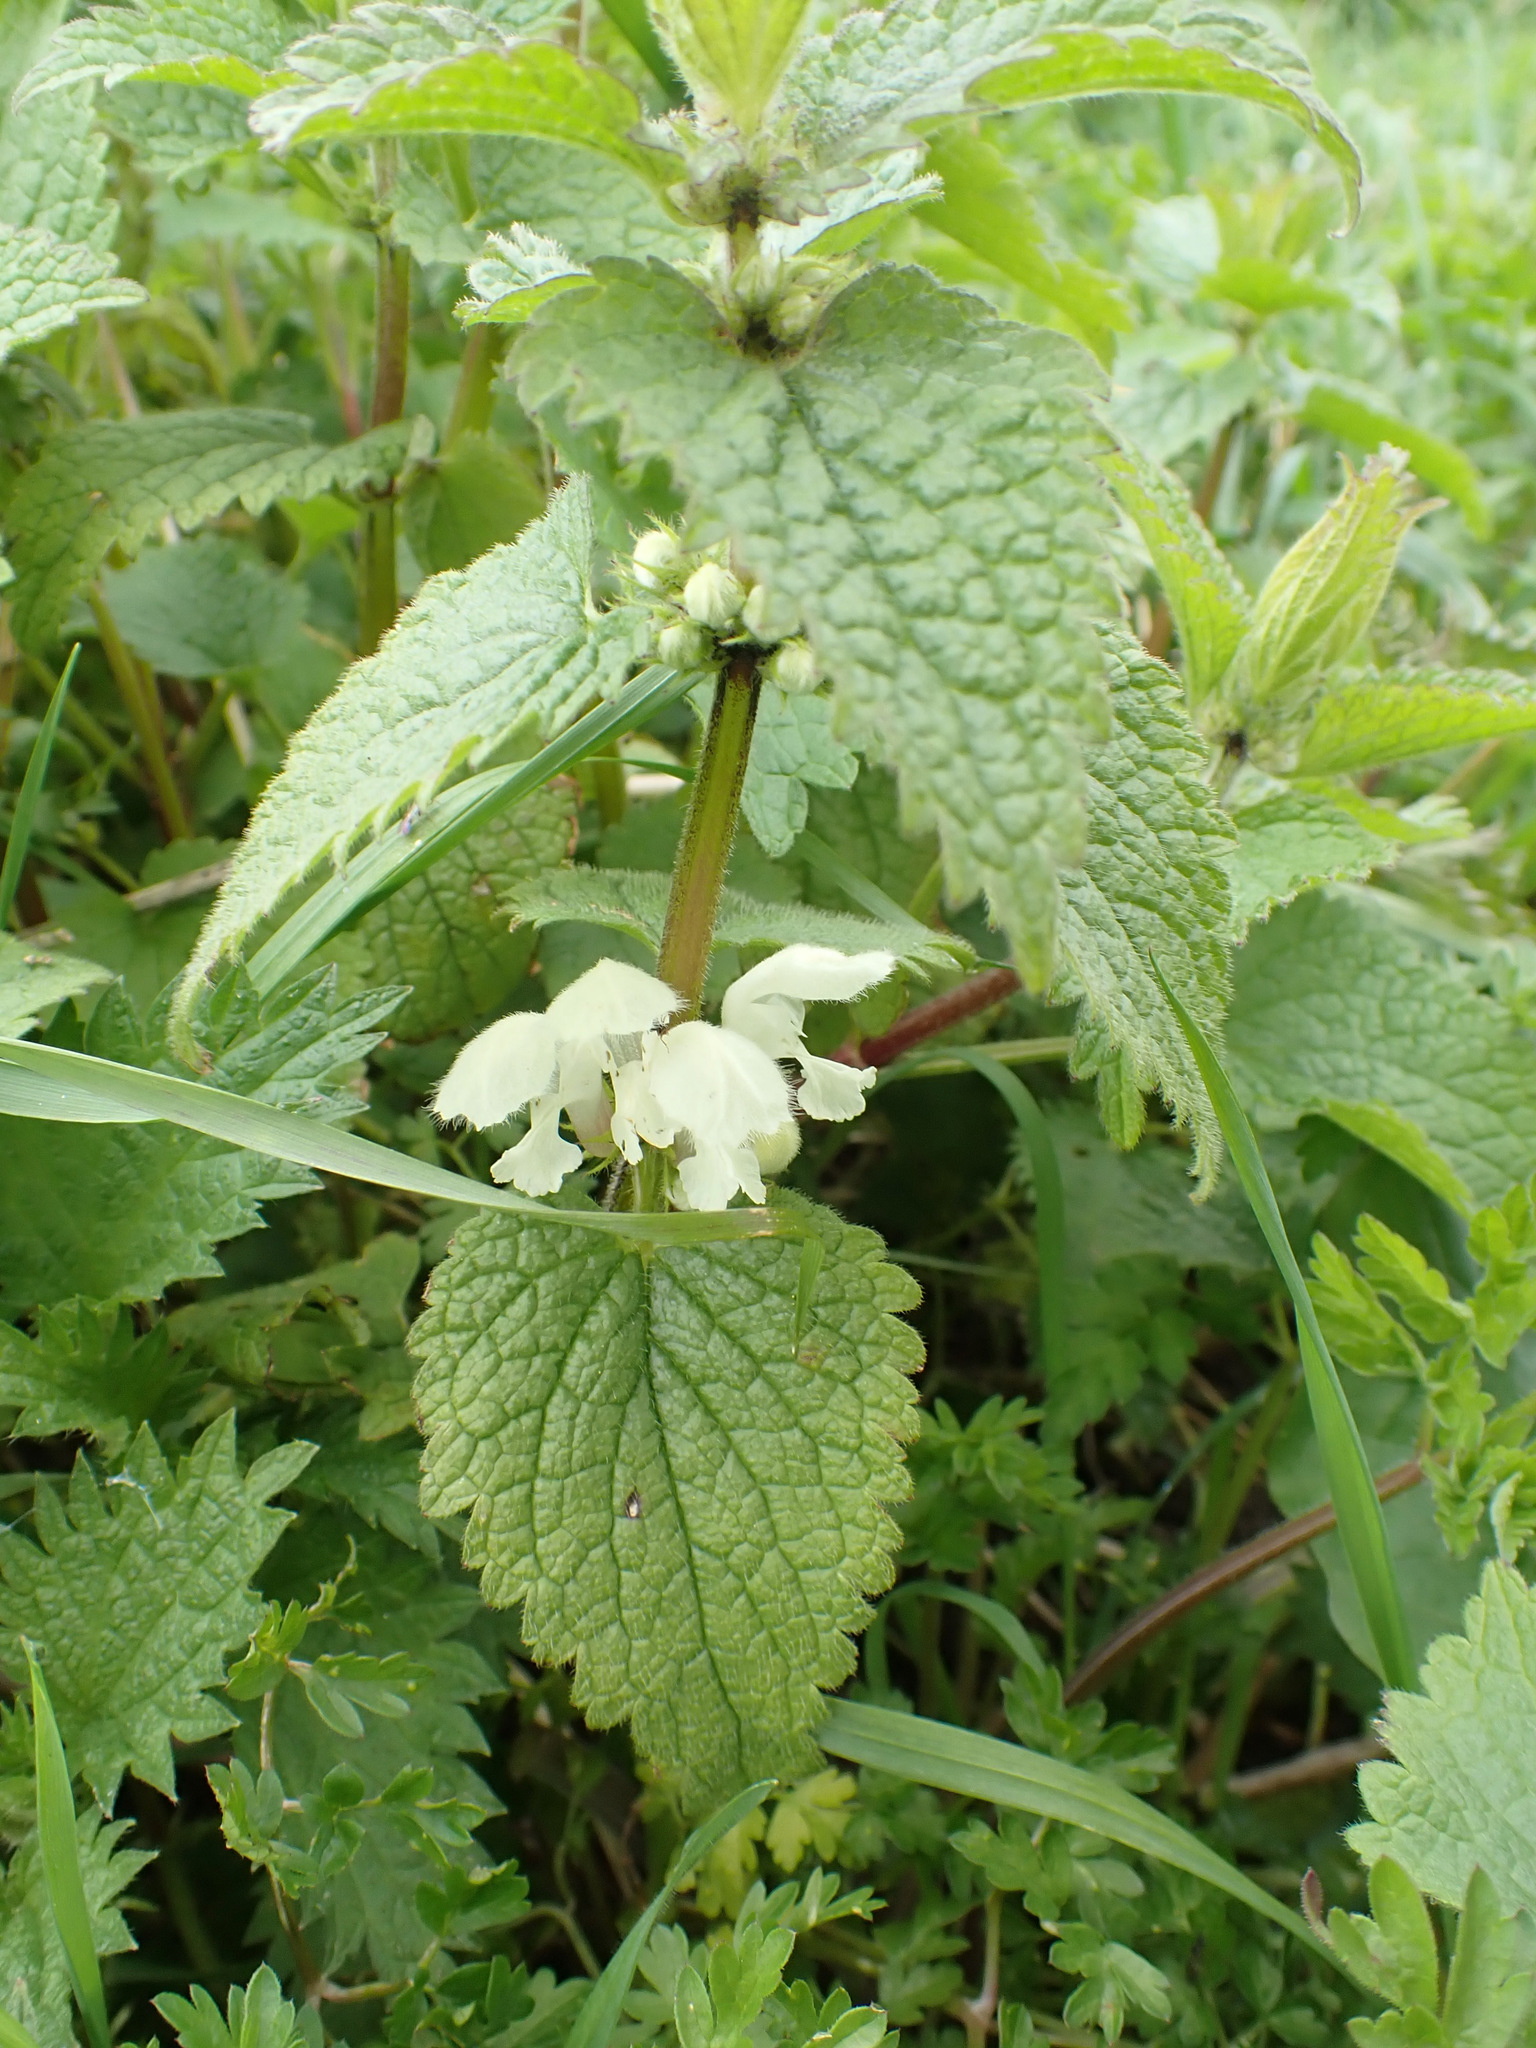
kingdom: Plantae
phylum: Tracheophyta
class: Magnoliopsida
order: Lamiales
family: Lamiaceae
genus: Lamium
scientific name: Lamium album
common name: White dead-nettle
